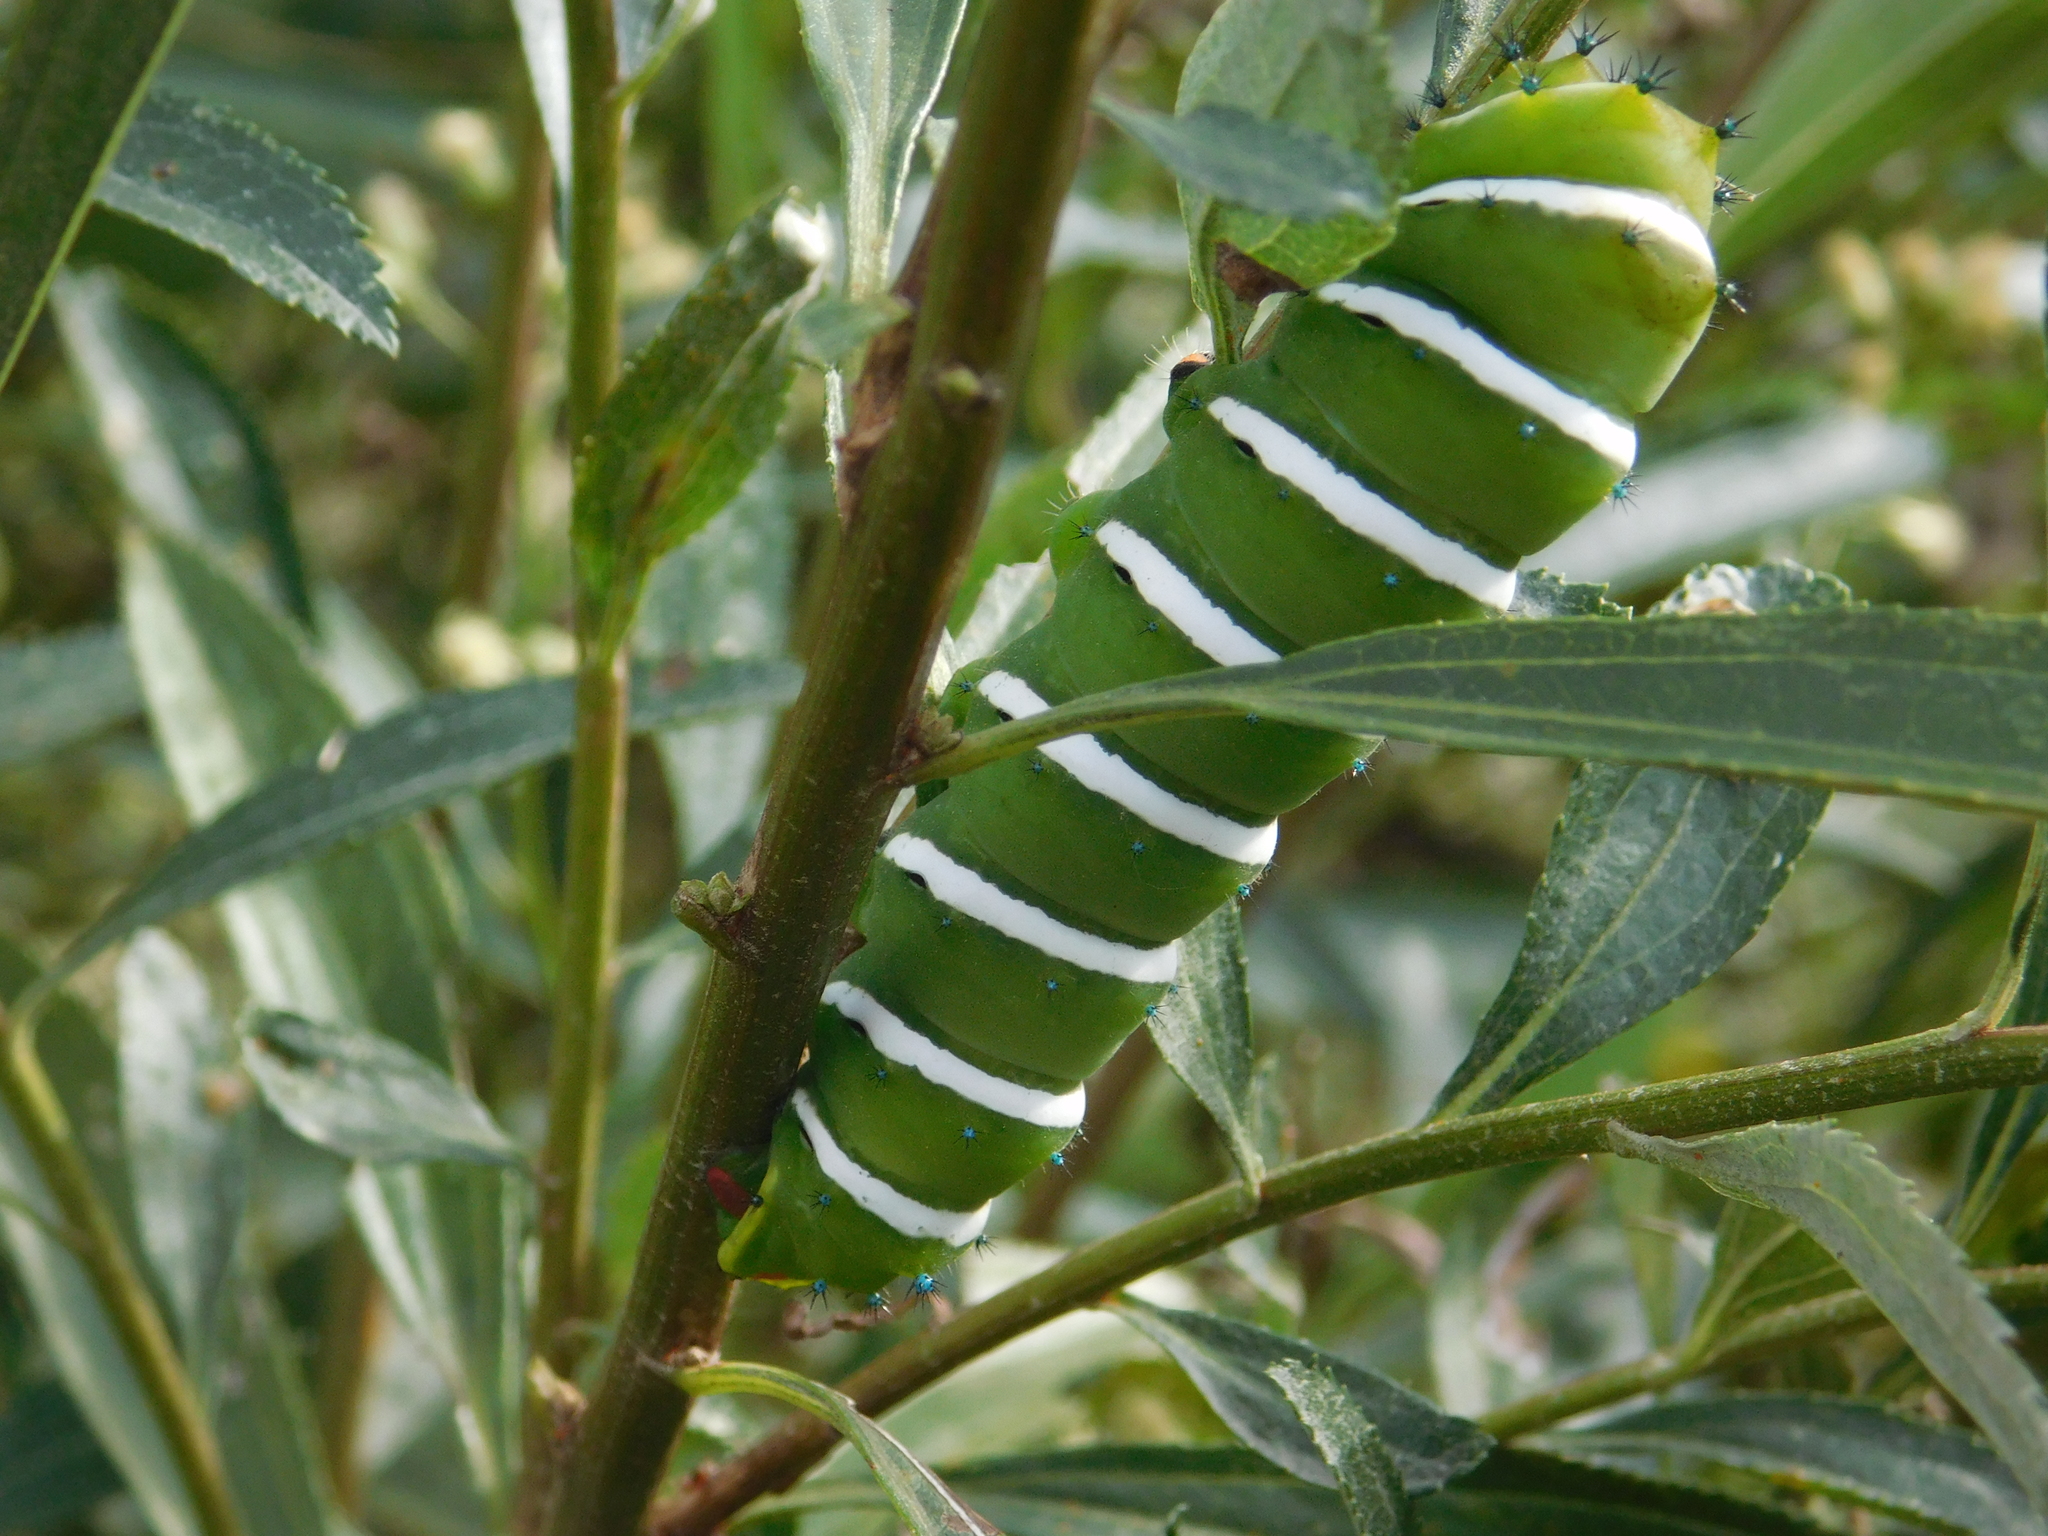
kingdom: Animalia
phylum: Arthropoda
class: Insecta
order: Lepidoptera
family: Saturniidae
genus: Rothschildia
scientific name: Rothschildia jacobaeae
